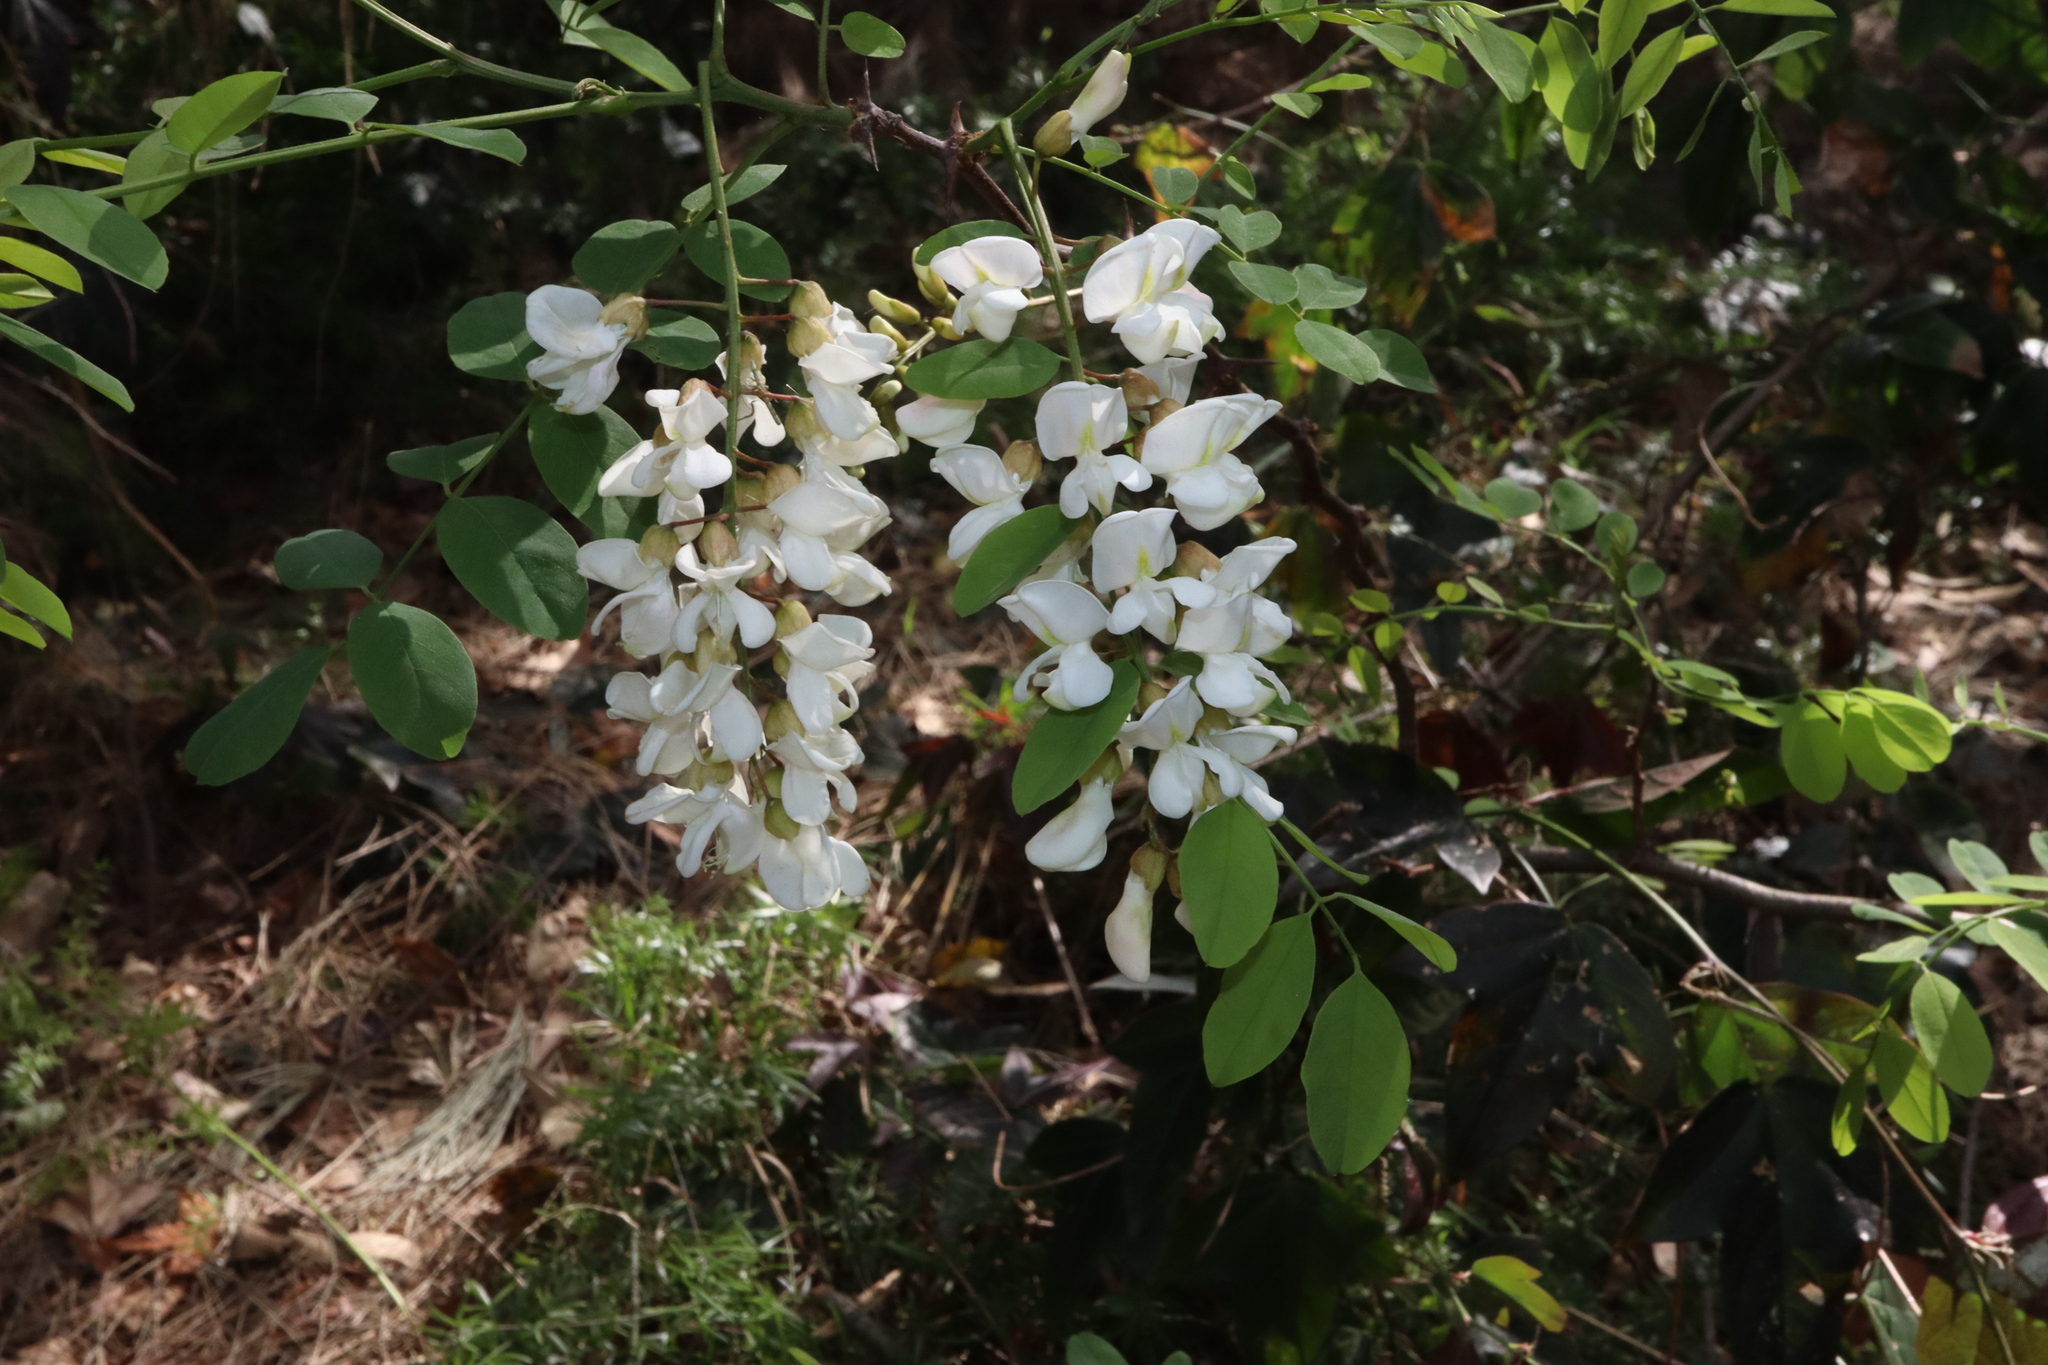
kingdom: Plantae
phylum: Tracheophyta
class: Magnoliopsida
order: Fabales
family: Fabaceae
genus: Robinia
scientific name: Robinia pseudoacacia
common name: Black locust
